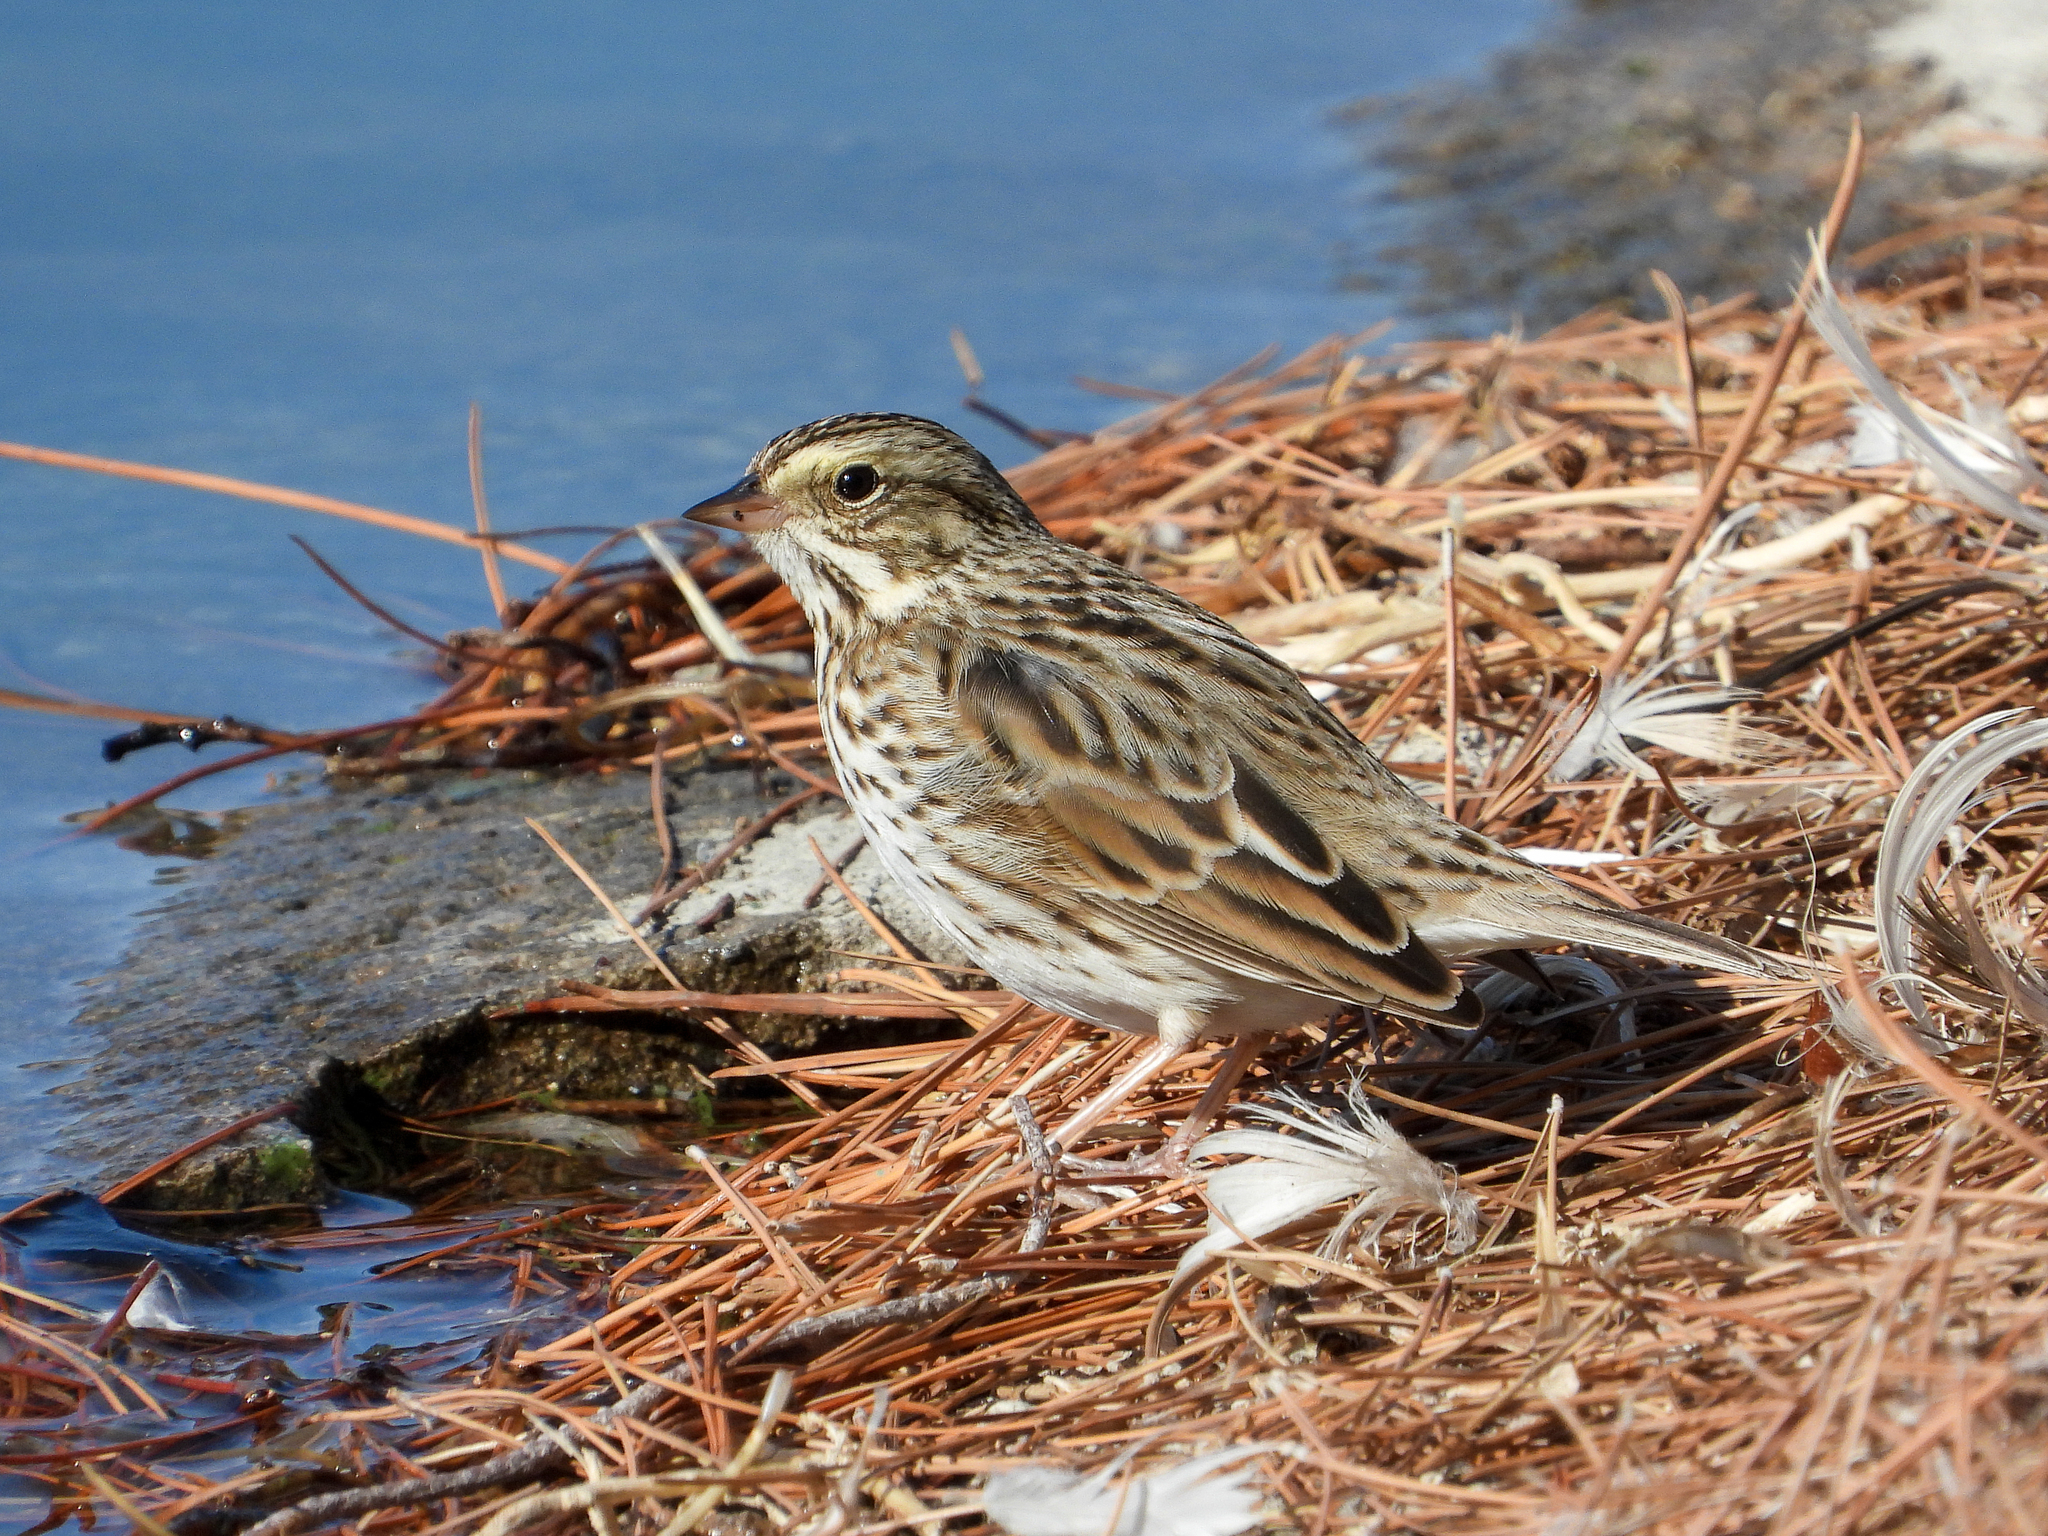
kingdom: Animalia
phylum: Chordata
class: Aves
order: Passeriformes
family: Passerellidae
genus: Passerculus
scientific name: Passerculus sandwichensis
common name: Savannah sparrow
